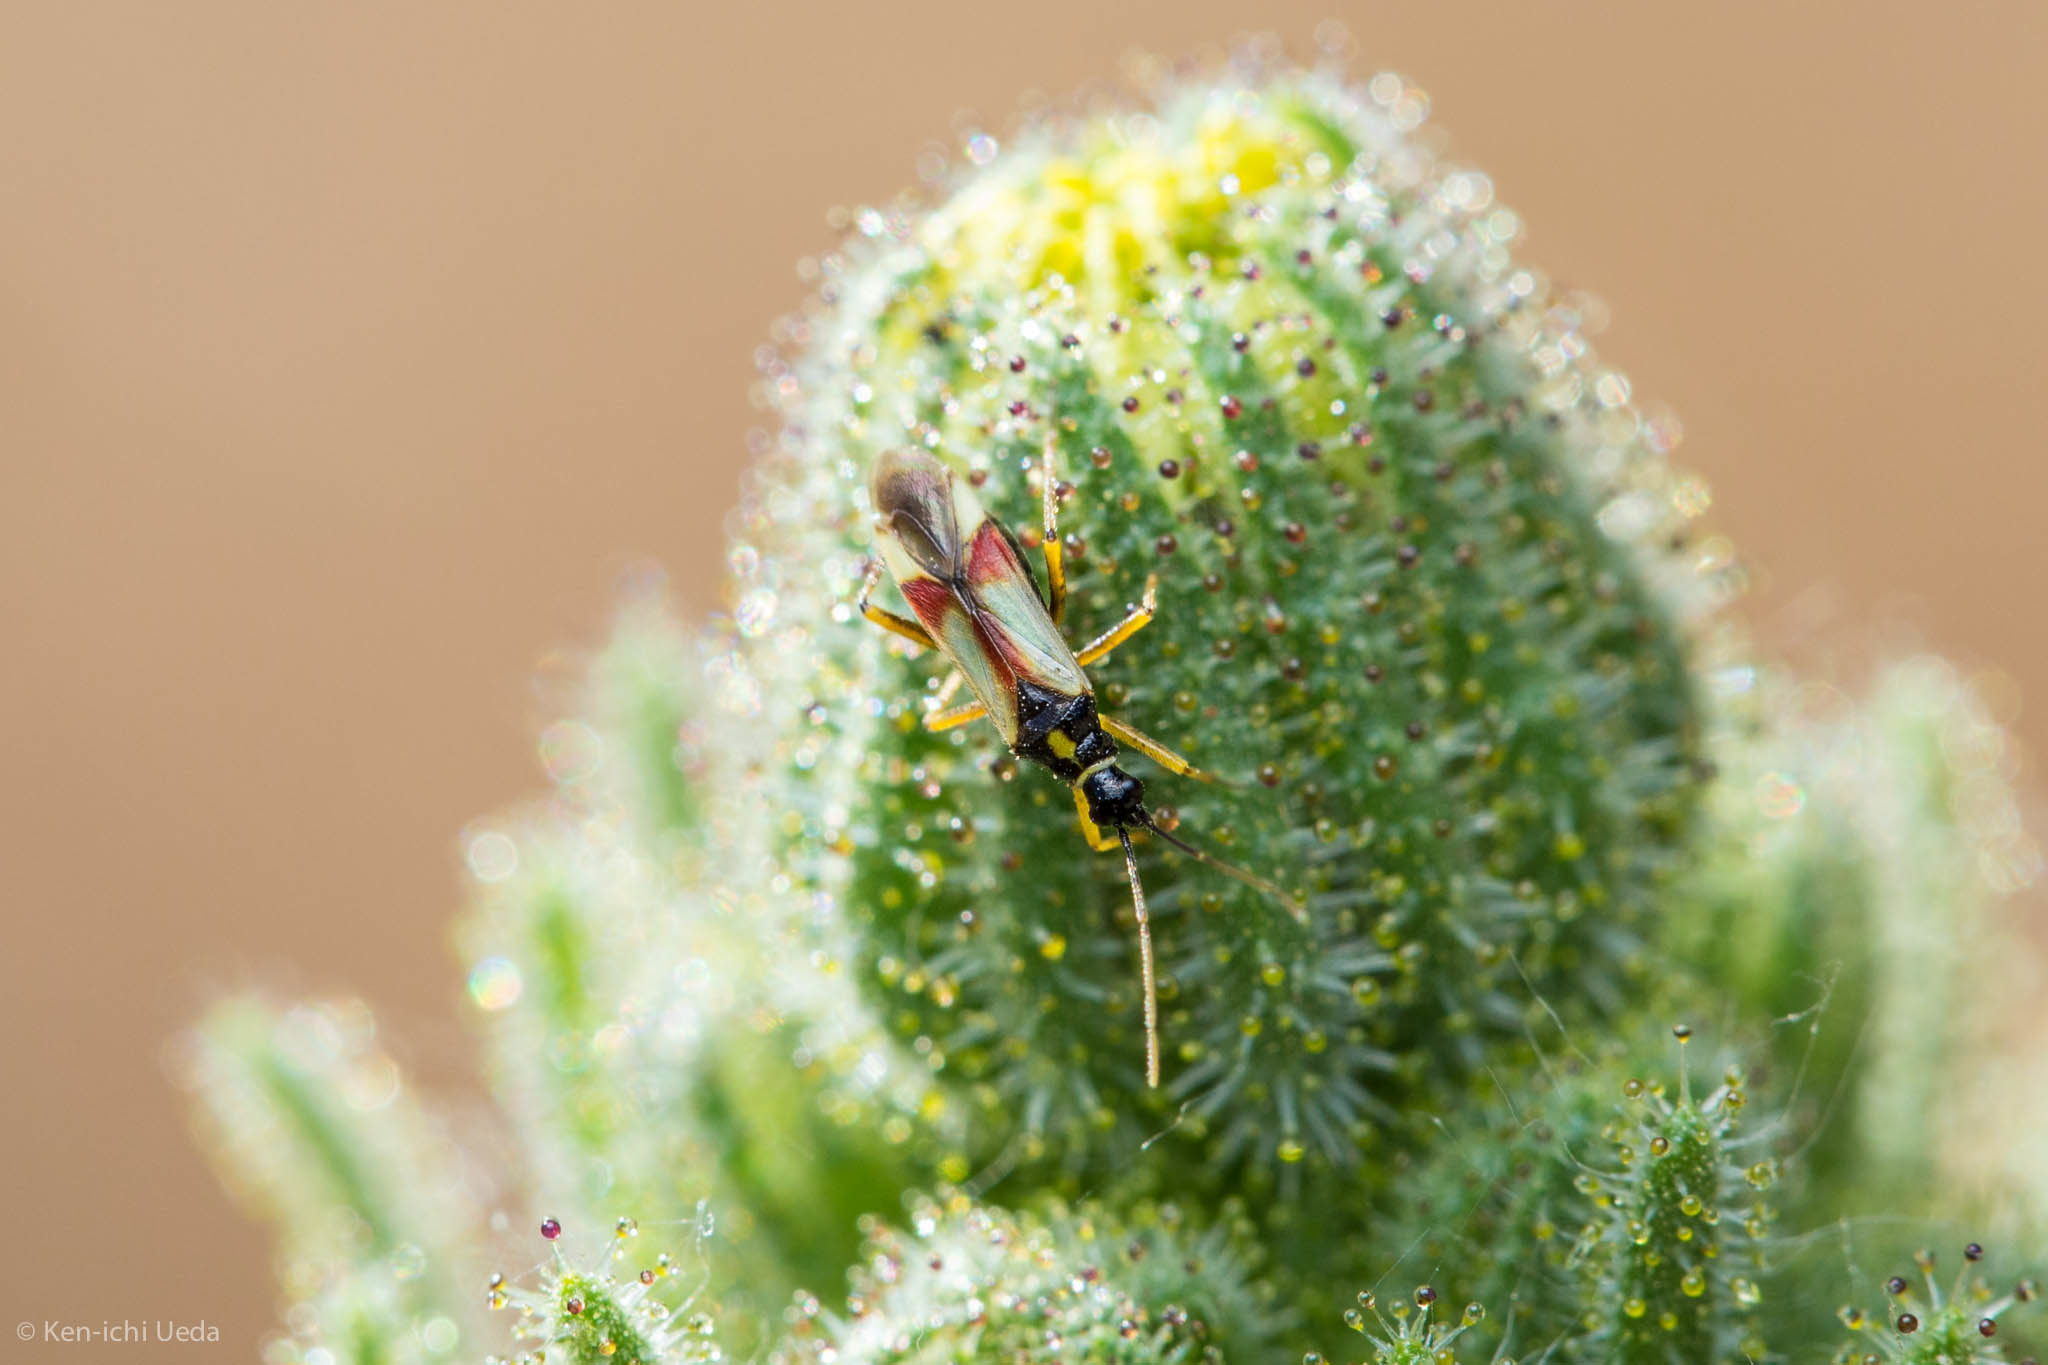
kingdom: Animalia
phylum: Arthropoda
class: Insecta
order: Hemiptera
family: Miridae
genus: Tupiocoris
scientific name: Tupiocoris californicus
